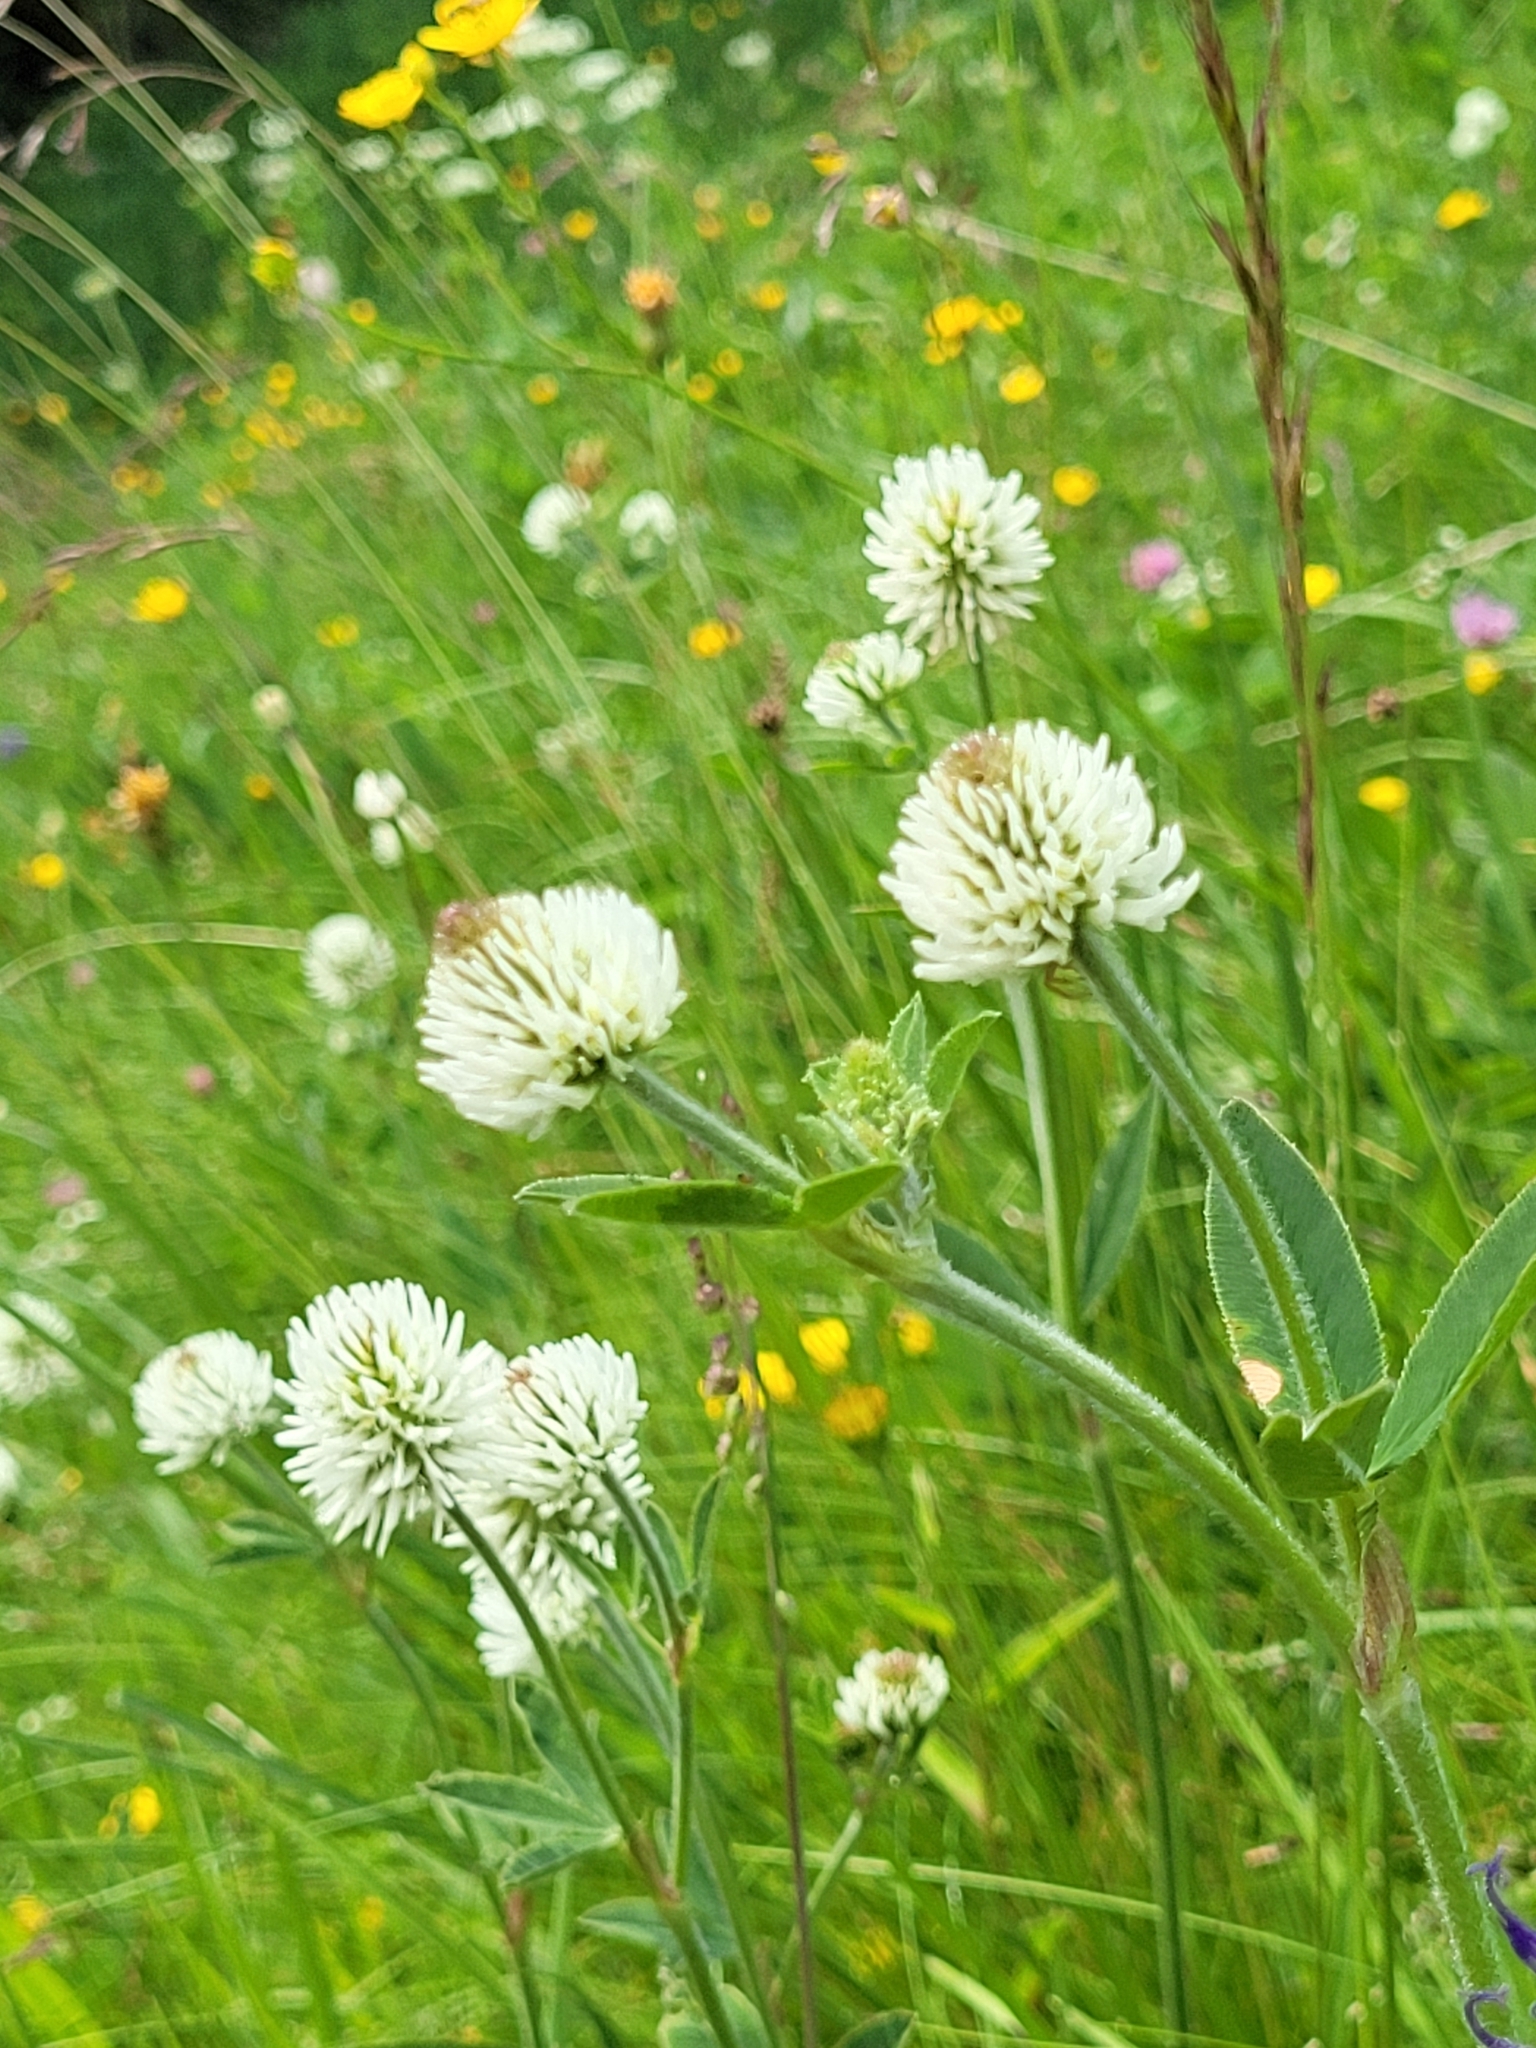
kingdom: Plantae
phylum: Tracheophyta
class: Magnoliopsida
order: Fabales
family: Fabaceae
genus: Trifolium
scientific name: Trifolium montanum
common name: Mountain clover
